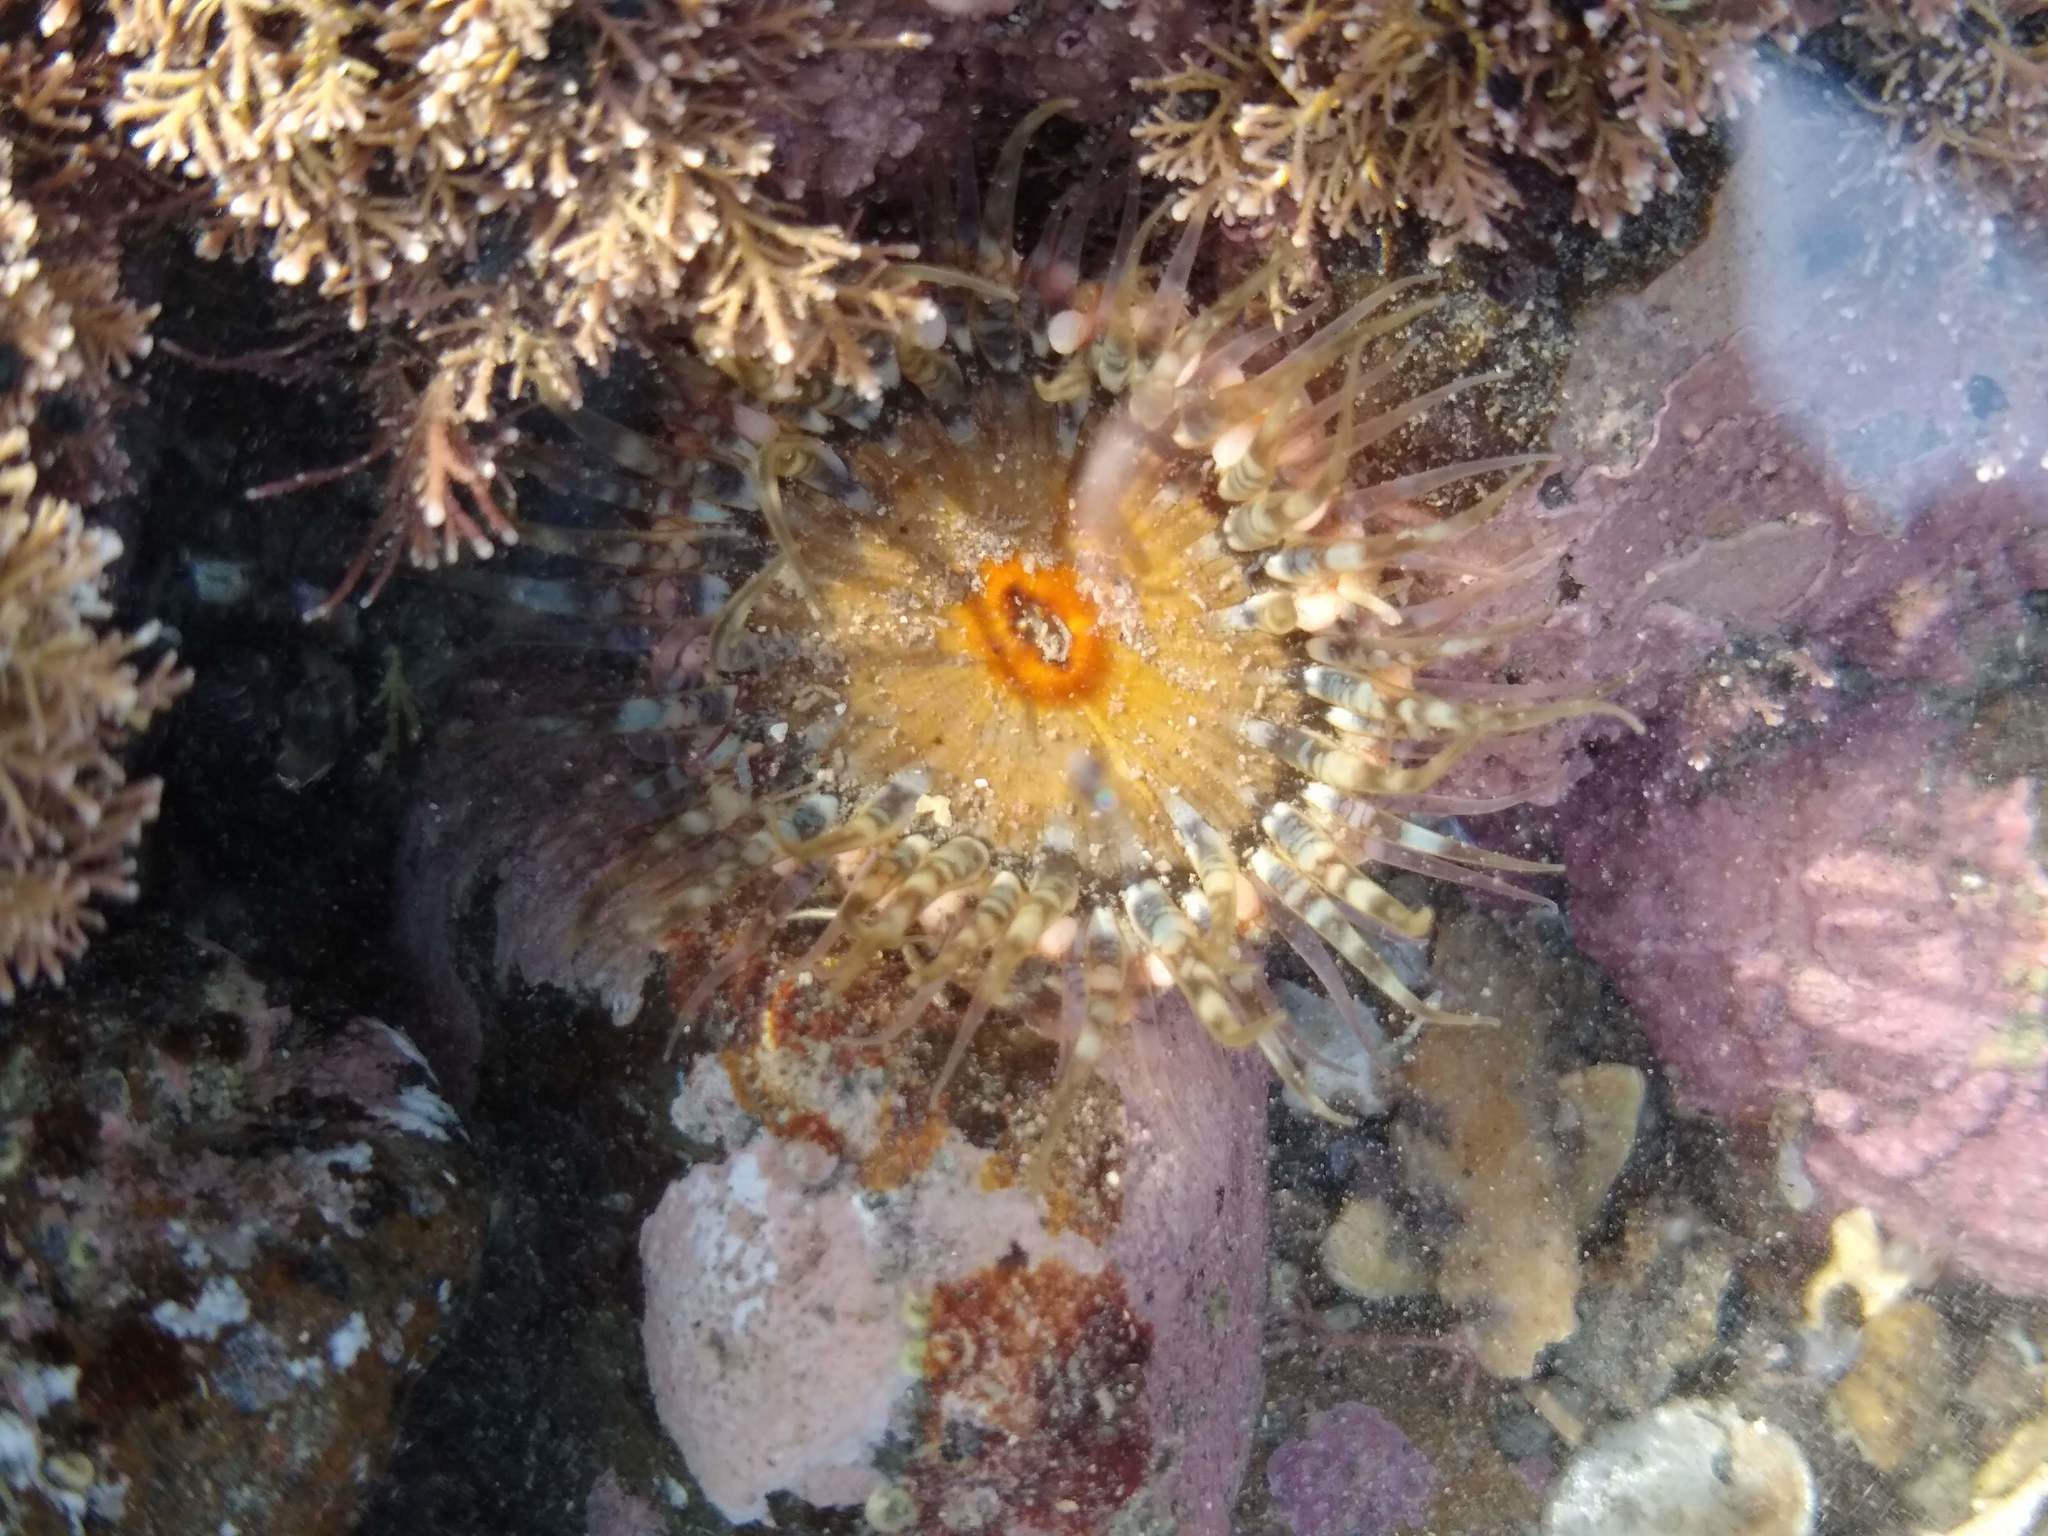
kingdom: Animalia
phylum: Cnidaria
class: Anthozoa
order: Actiniaria
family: Actiniidae
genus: Oulactis
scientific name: Oulactis muscosa
